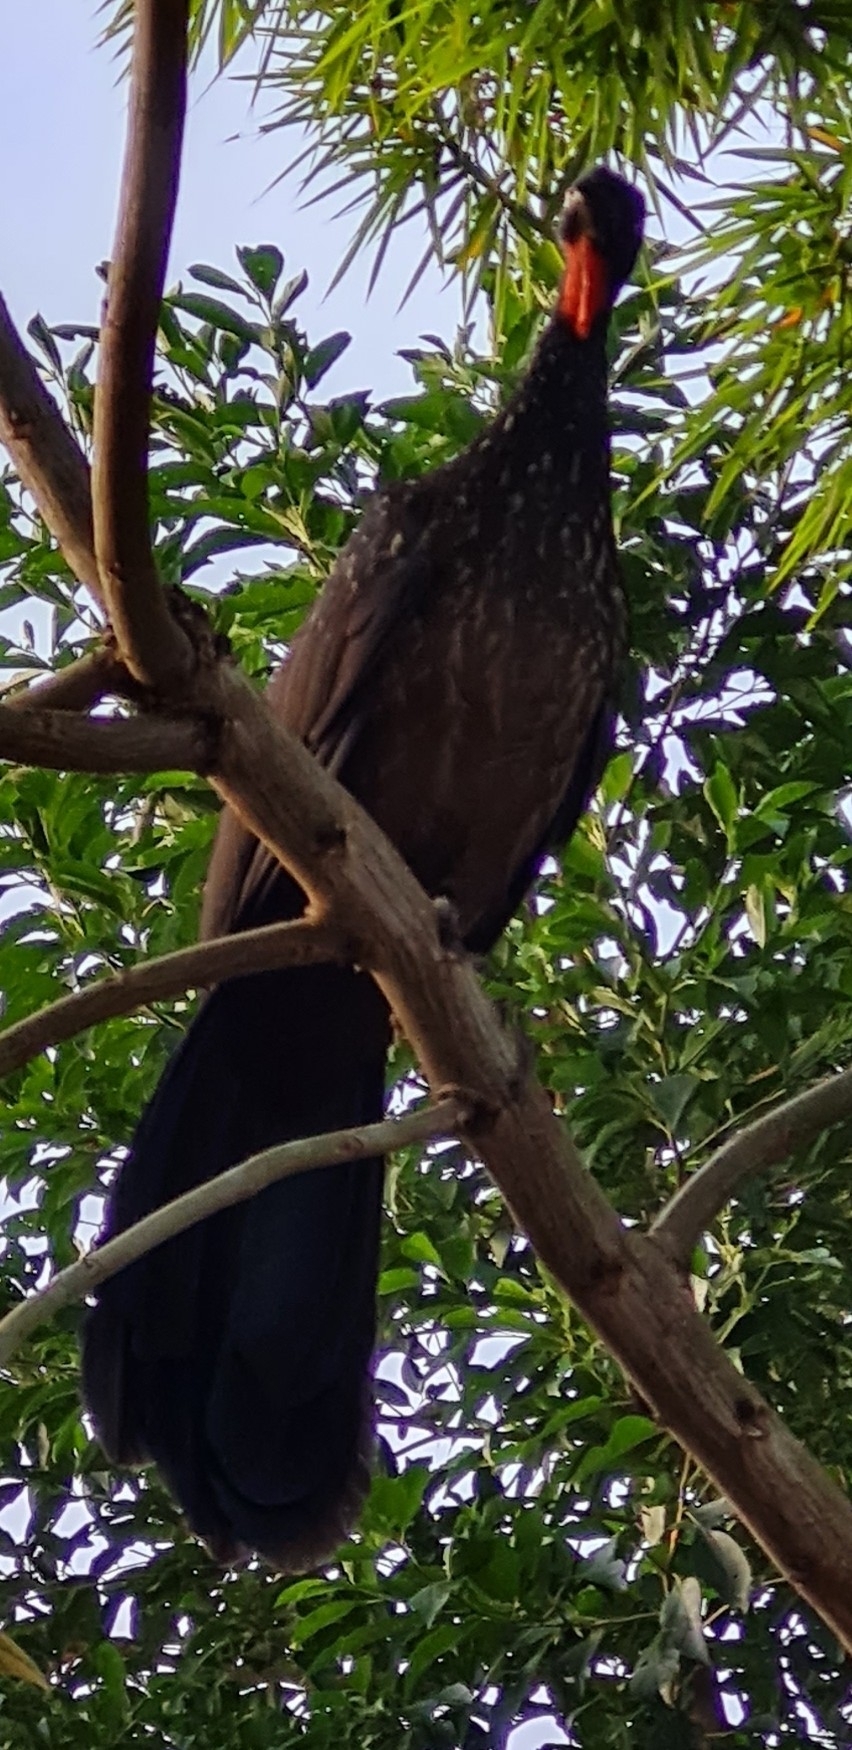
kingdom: Animalia
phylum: Chordata
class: Aves
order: Galliformes
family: Cracidae
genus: Penelope
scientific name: Penelope obscura
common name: Dusky-legged guan
